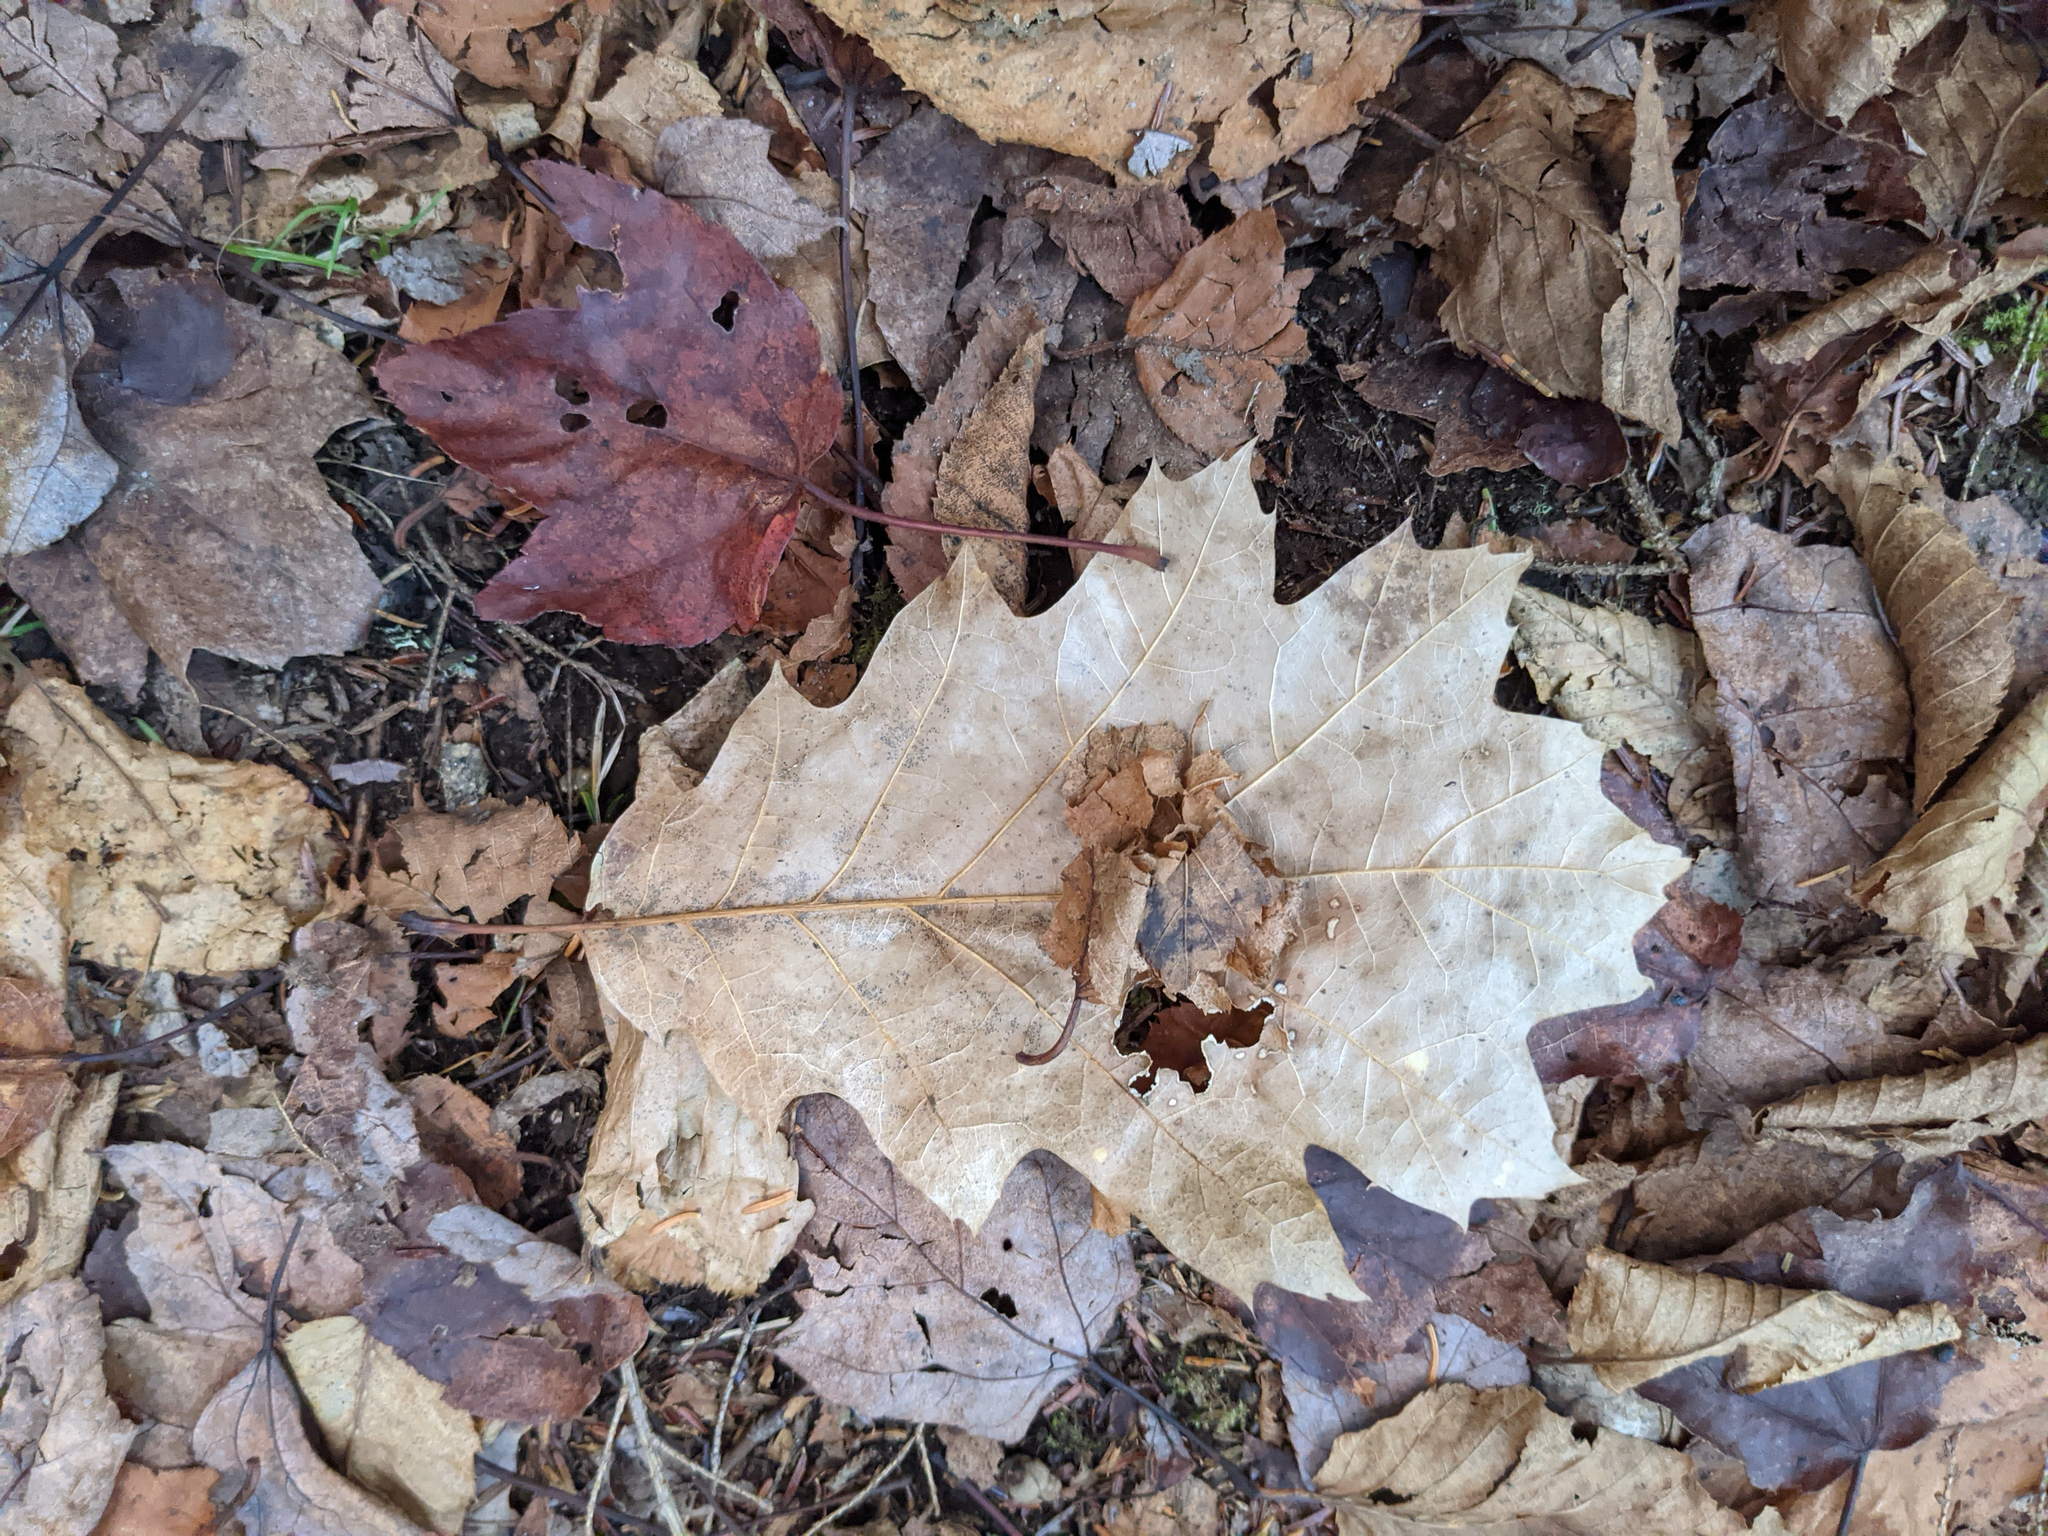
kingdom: Plantae
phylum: Tracheophyta
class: Magnoliopsida
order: Sapindales
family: Sapindaceae
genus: Acer
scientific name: Acer rubrum
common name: Red maple
